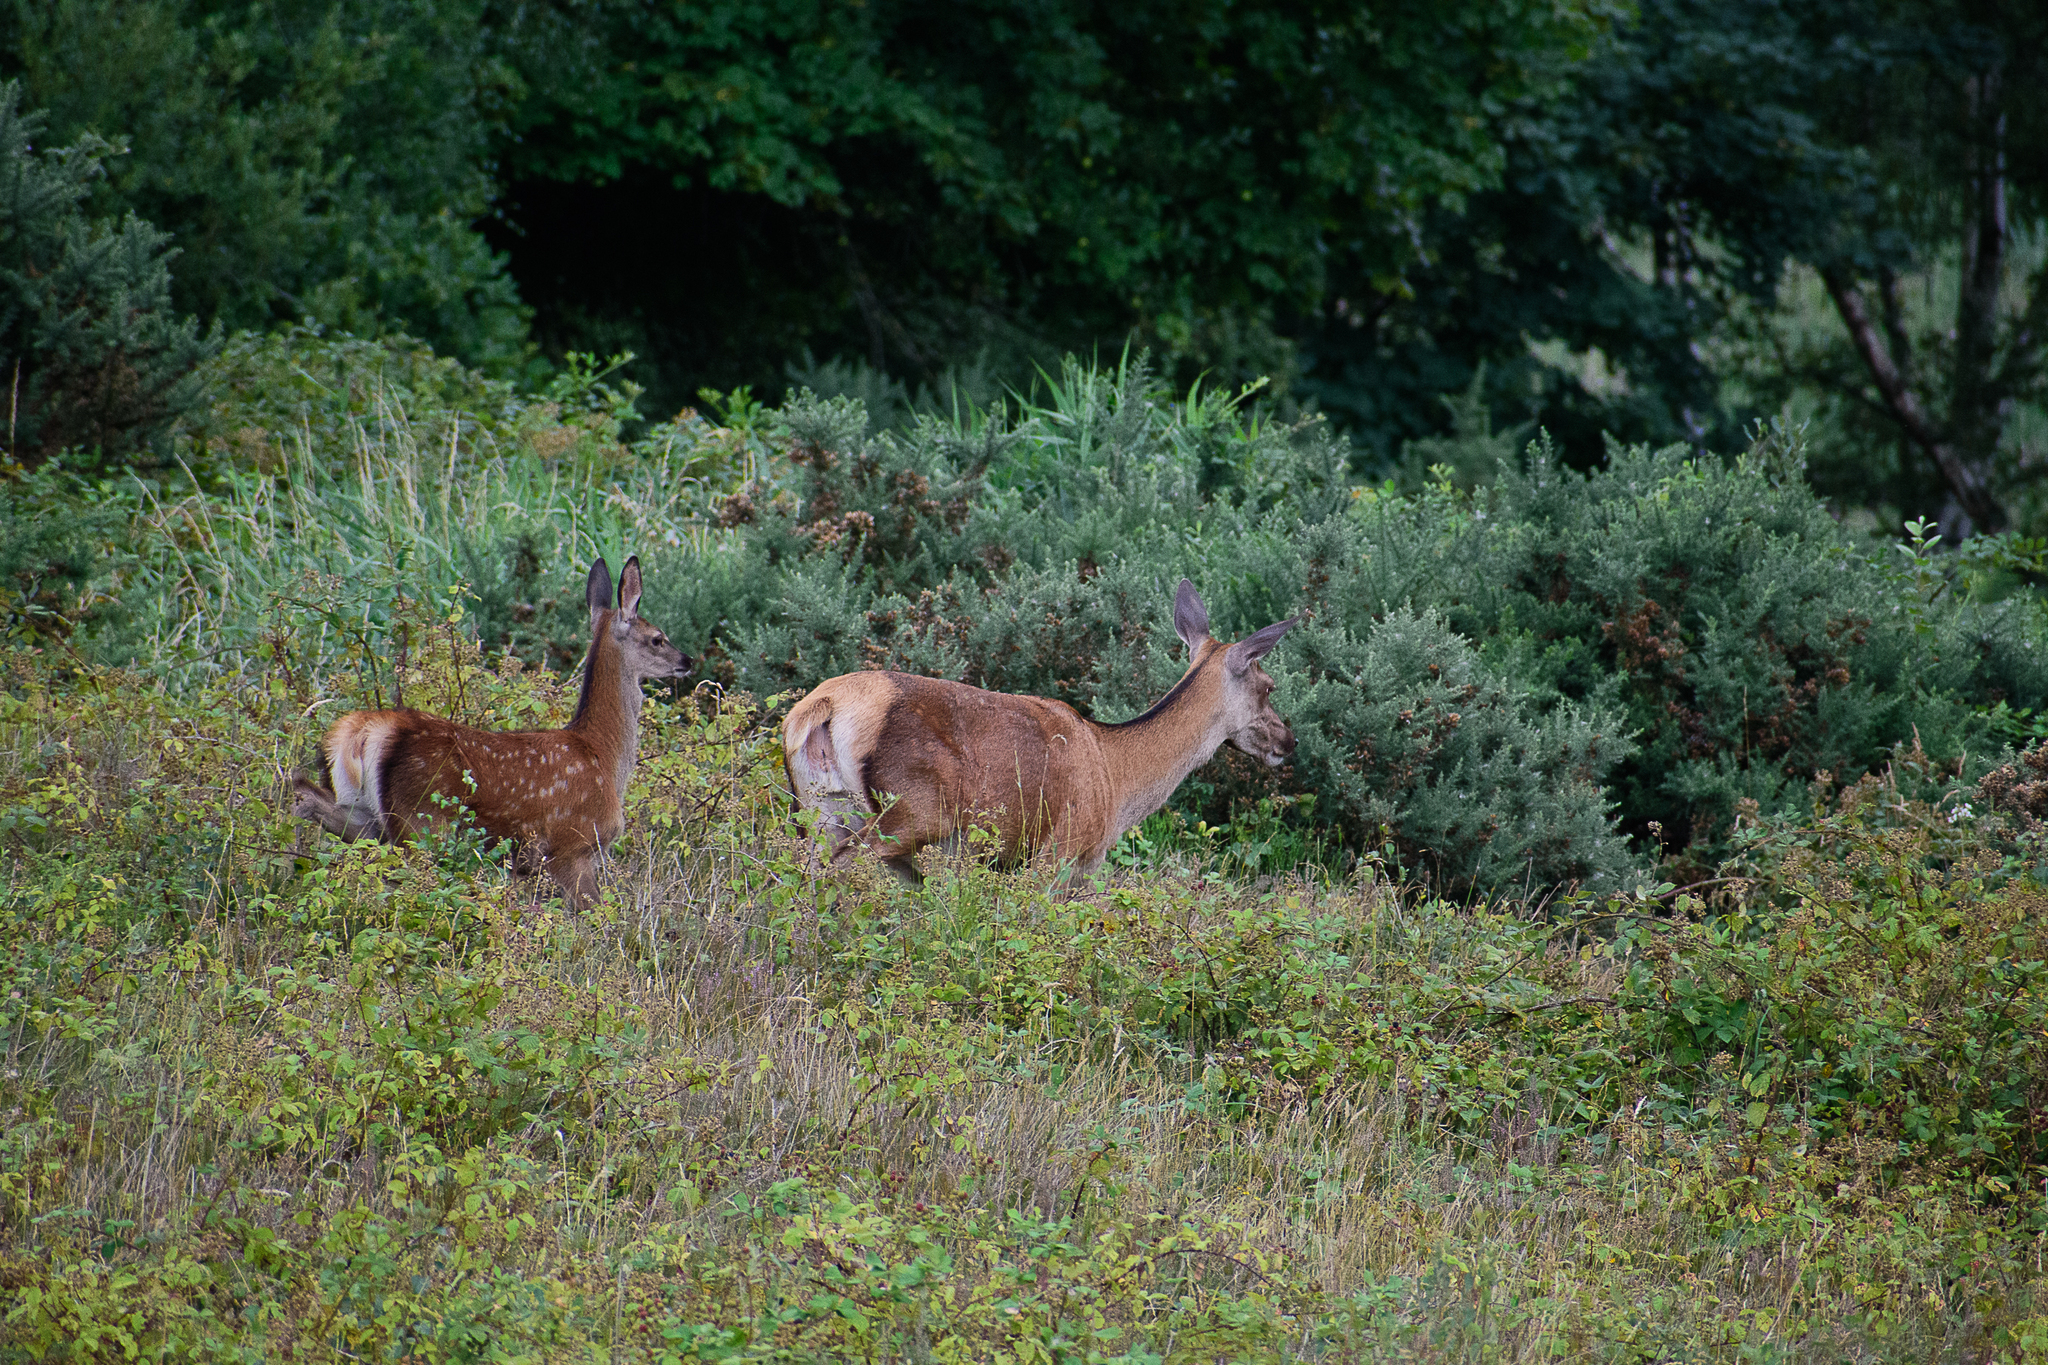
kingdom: Animalia
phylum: Chordata
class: Mammalia
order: Artiodactyla
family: Cervidae
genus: Cervus
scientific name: Cervus elaphus
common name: Red deer
